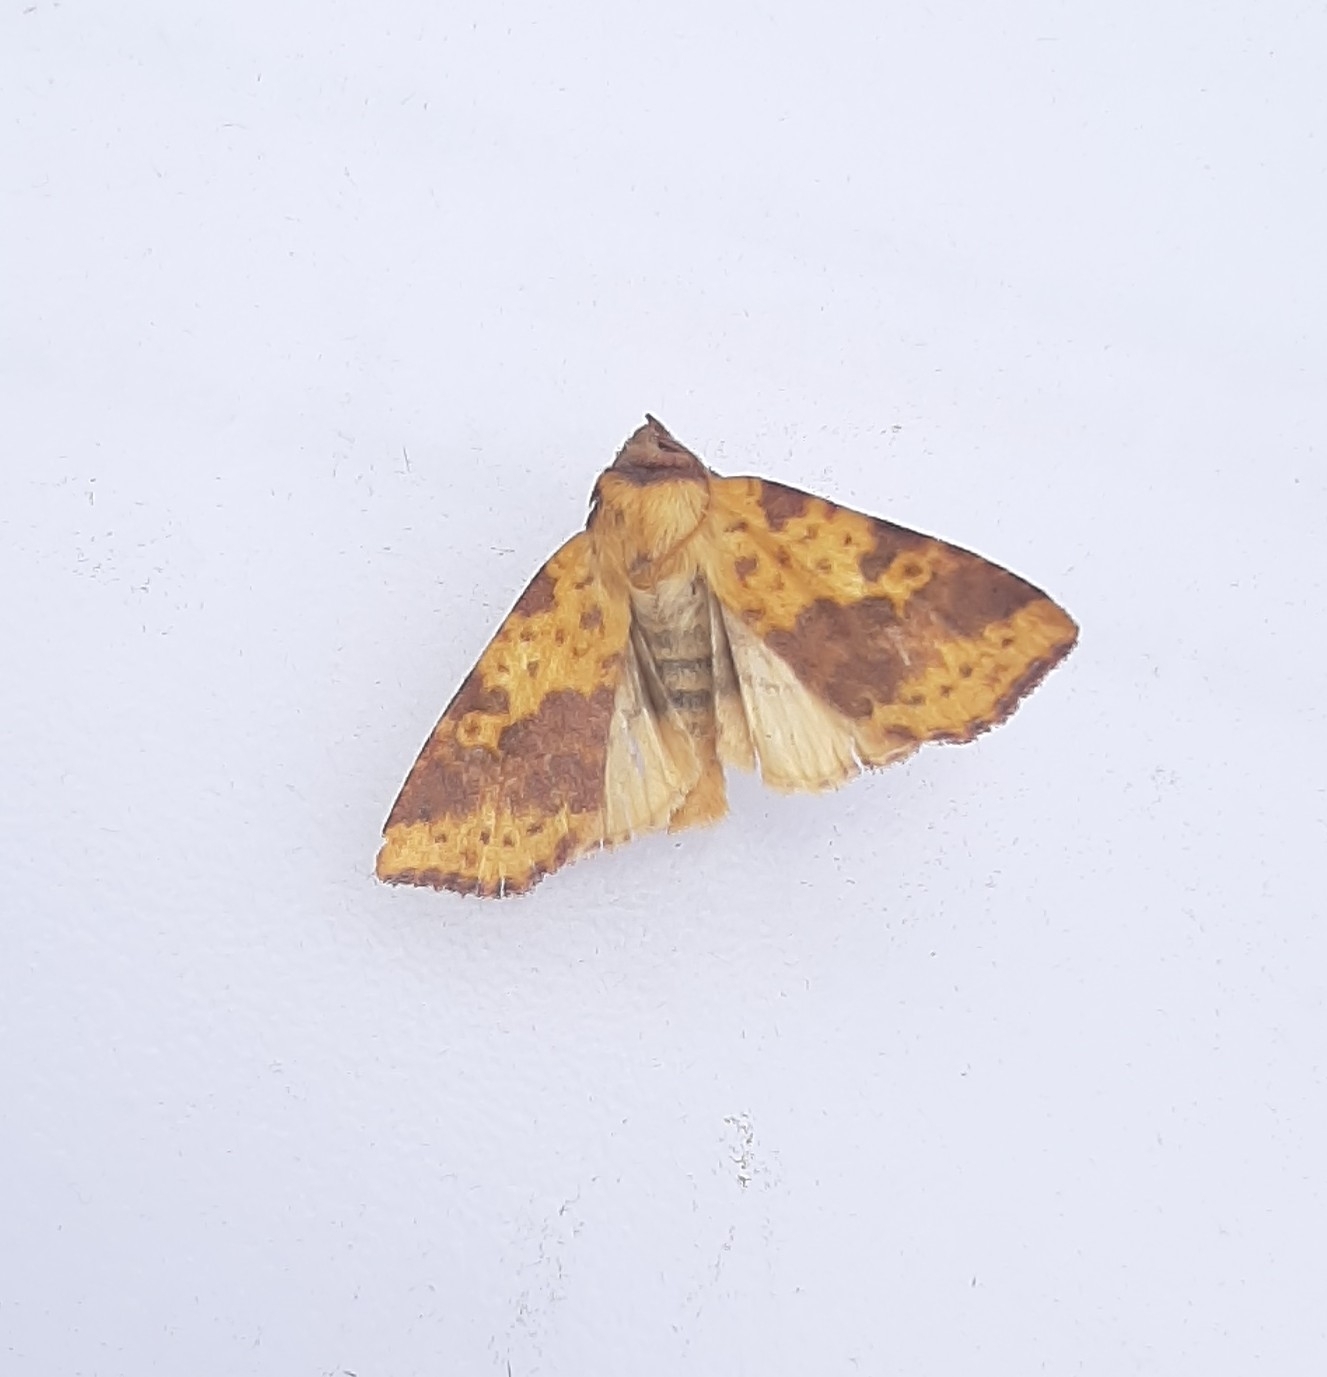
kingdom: Animalia
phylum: Arthropoda
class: Insecta
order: Lepidoptera
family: Noctuidae
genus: Xanthia
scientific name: Xanthia togata
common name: Pink-barred sallow
